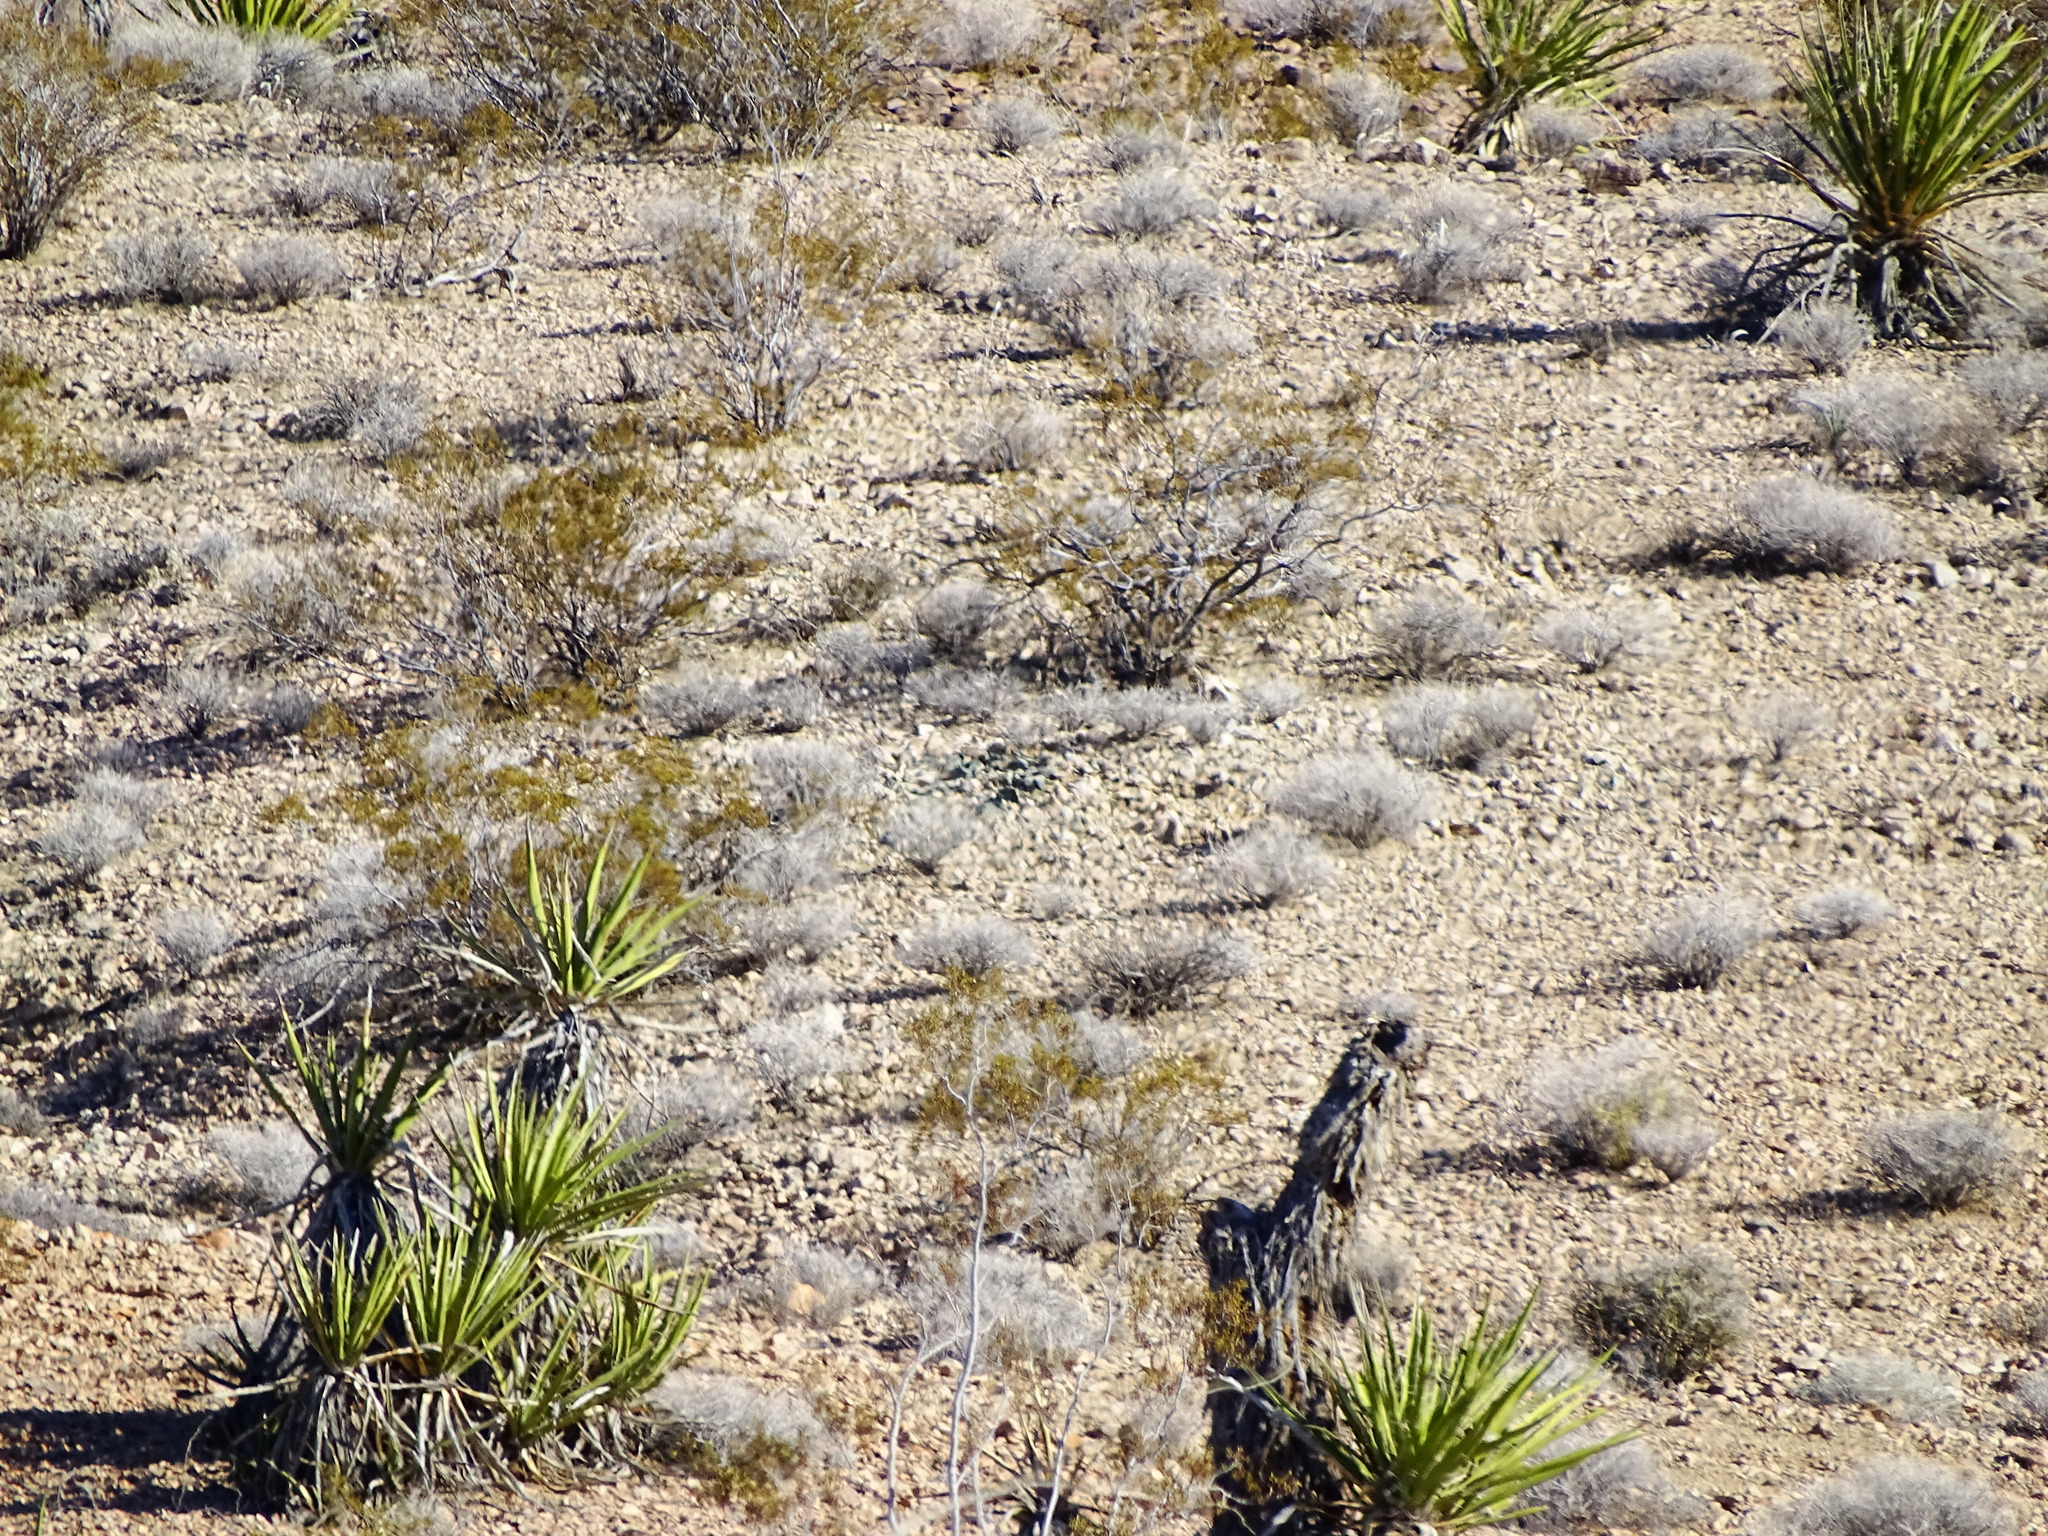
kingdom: Plantae
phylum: Tracheophyta
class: Liliopsida
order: Asparagales
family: Asparagaceae
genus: Yucca
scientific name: Yucca schidigera
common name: Mojave yucca
